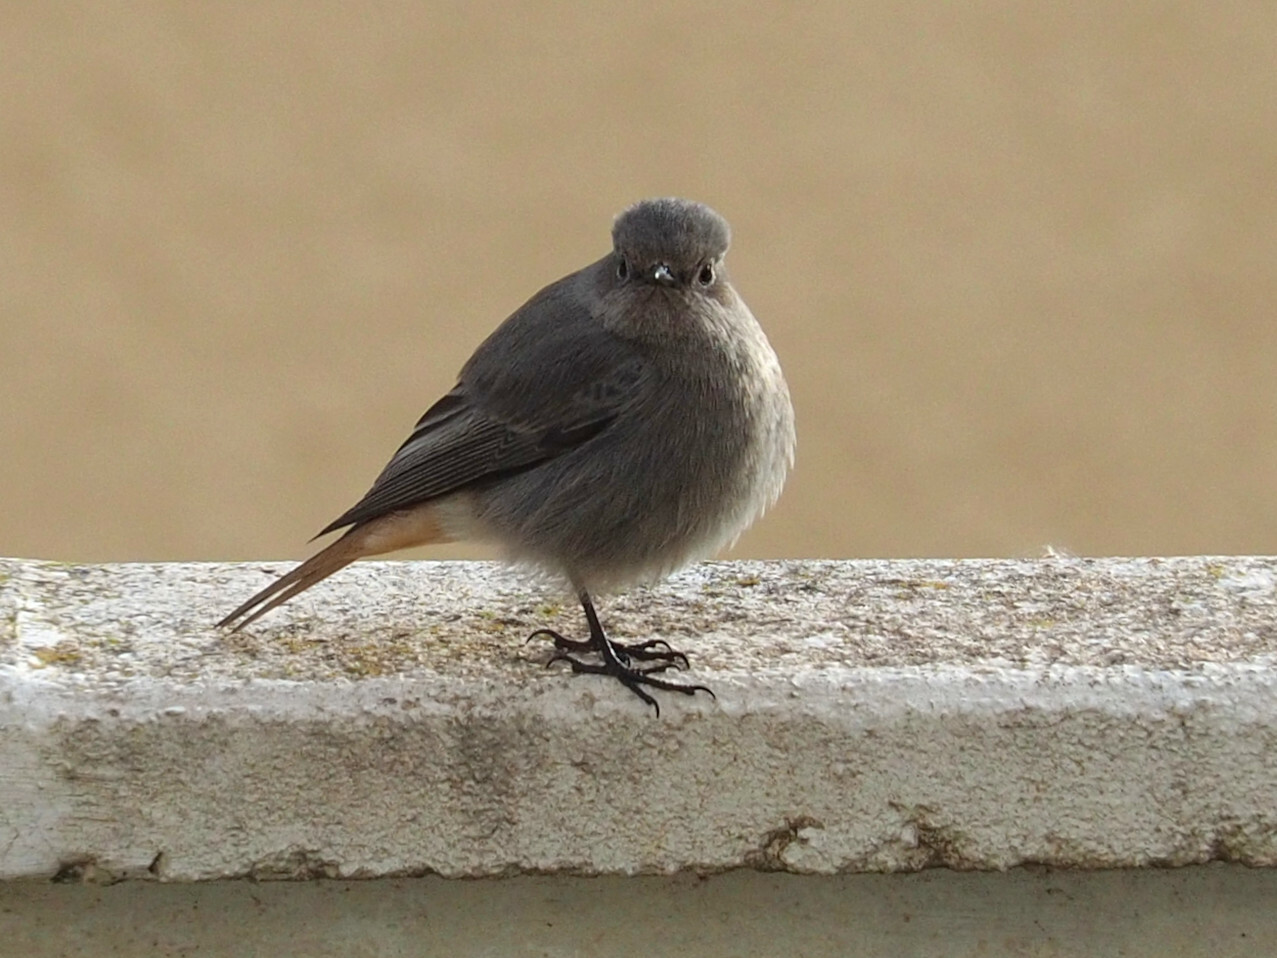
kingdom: Animalia
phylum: Chordata
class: Aves
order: Passeriformes
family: Muscicapidae
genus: Phoenicurus
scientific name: Phoenicurus ochruros
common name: Black redstart
